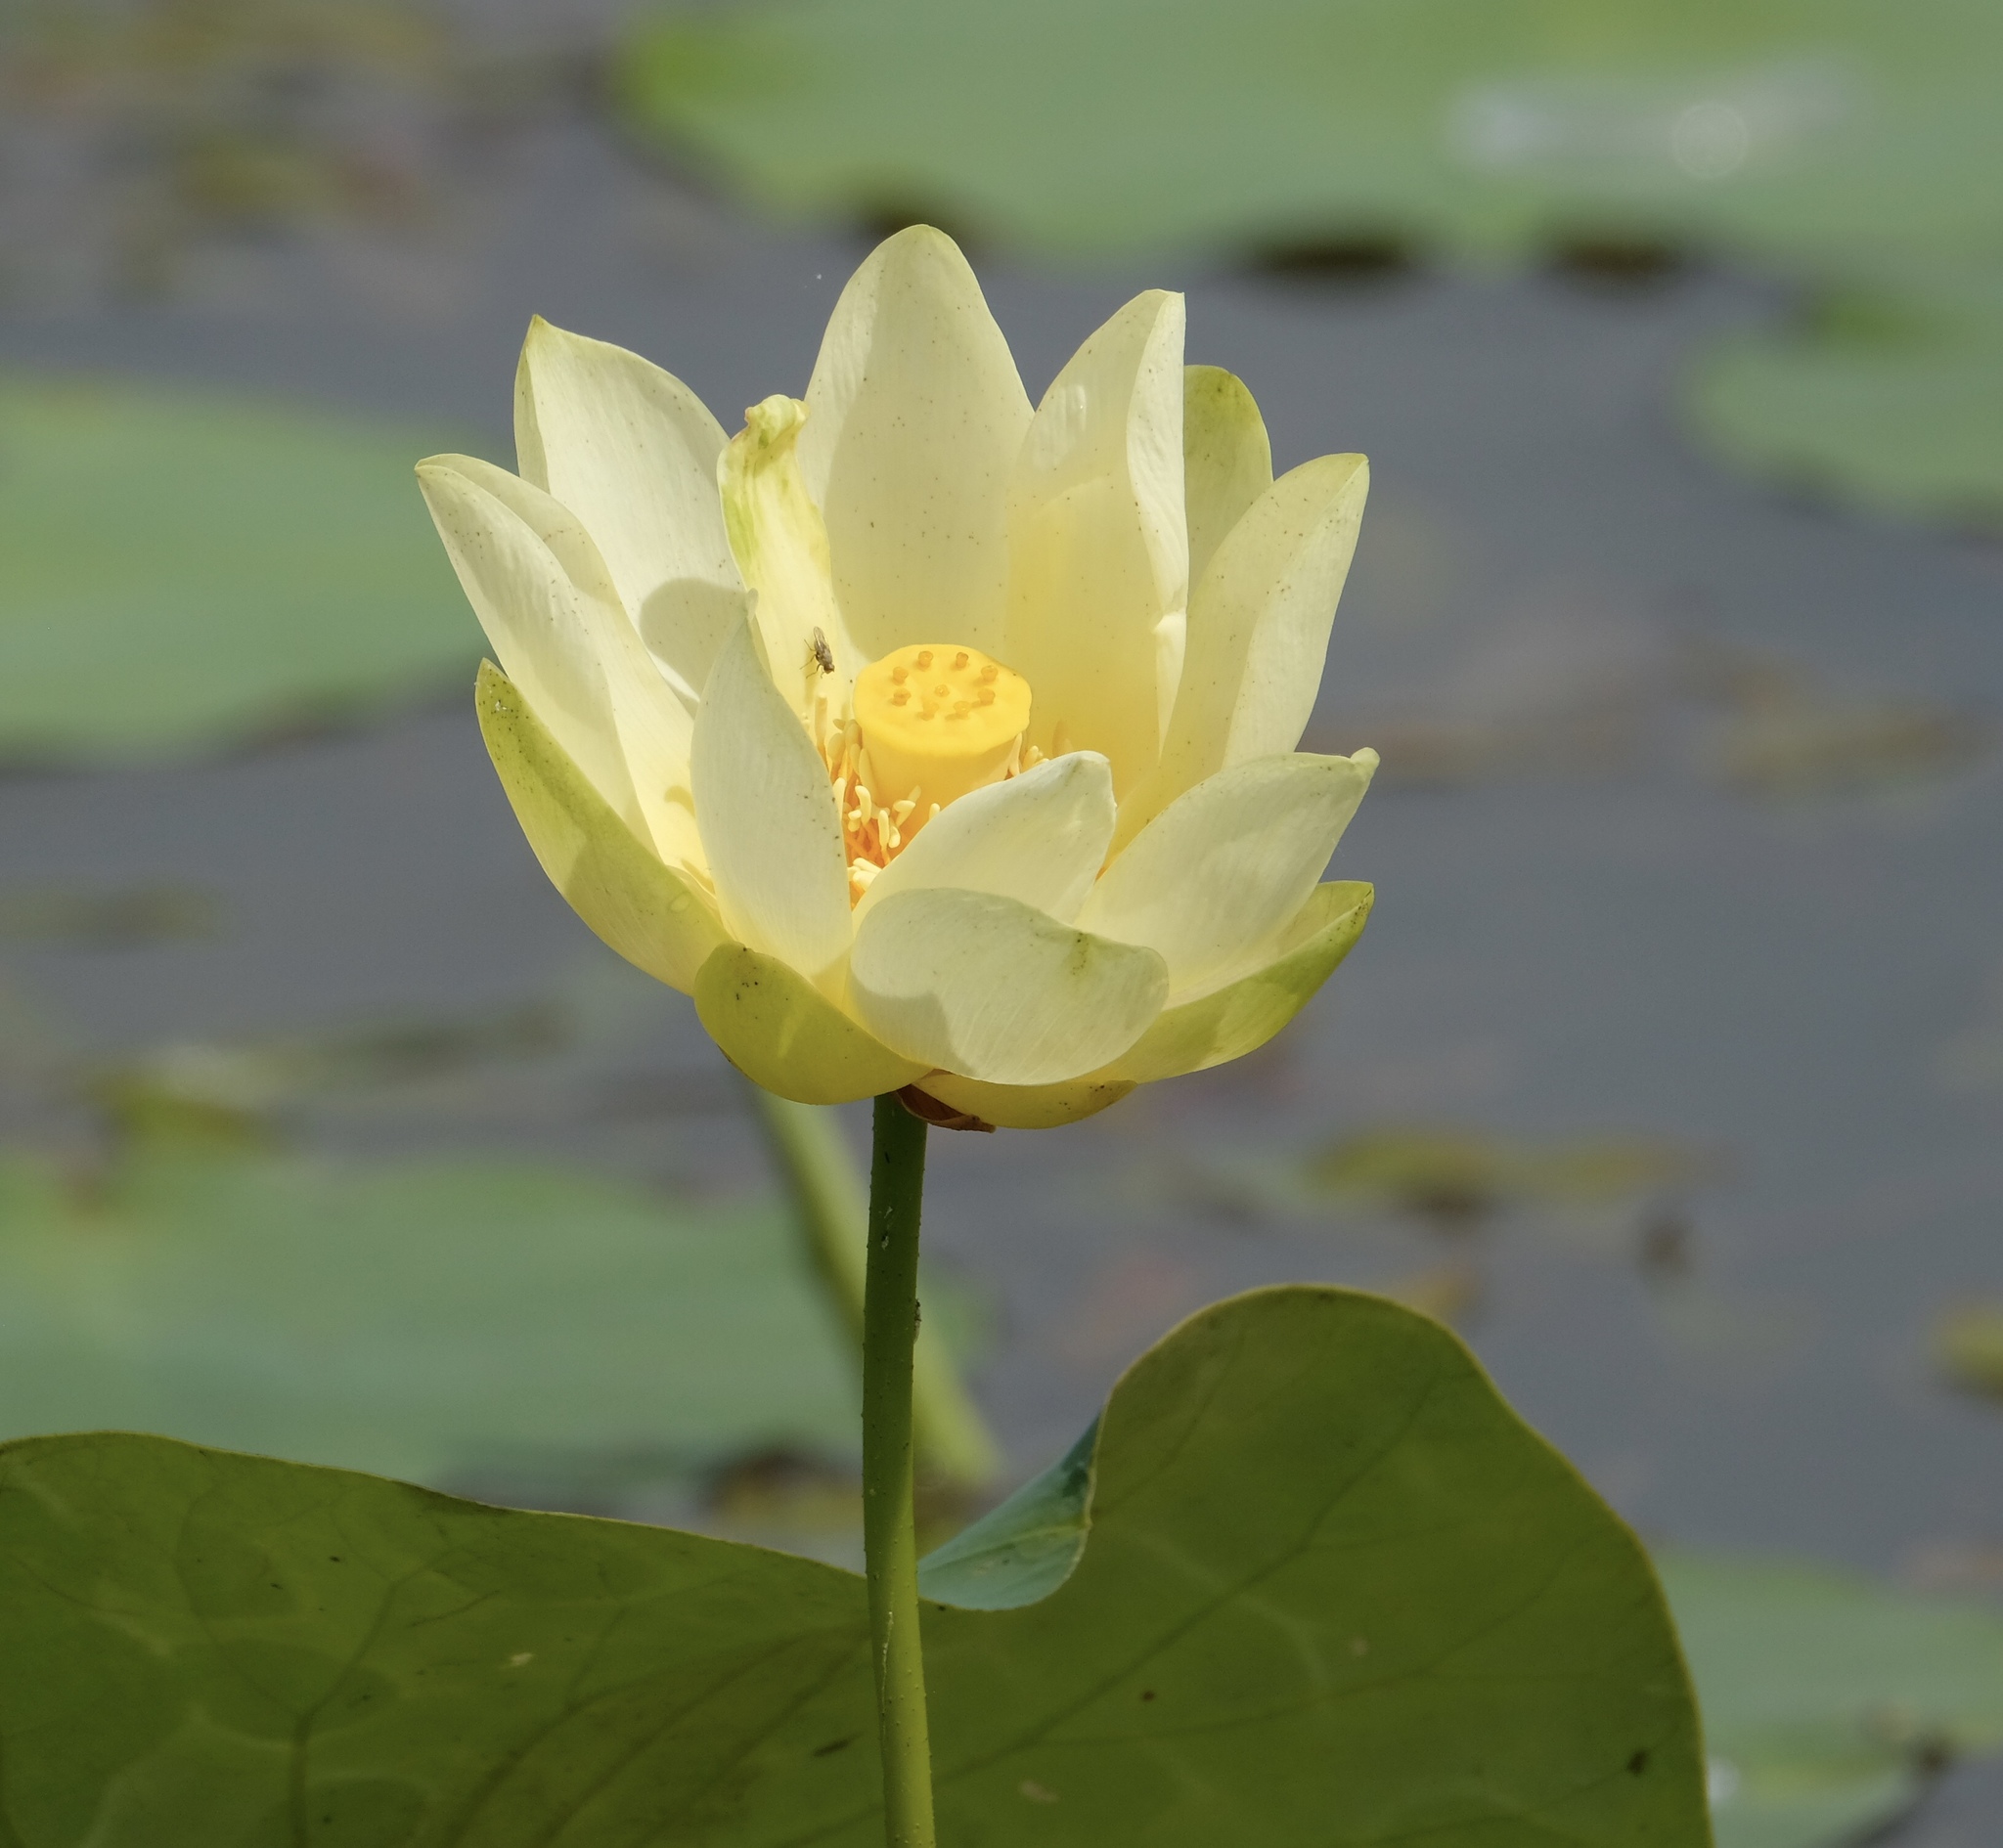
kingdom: Plantae
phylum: Tracheophyta
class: Magnoliopsida
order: Proteales
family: Nelumbonaceae
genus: Nelumbo
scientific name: Nelumbo lutea
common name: American lotus
